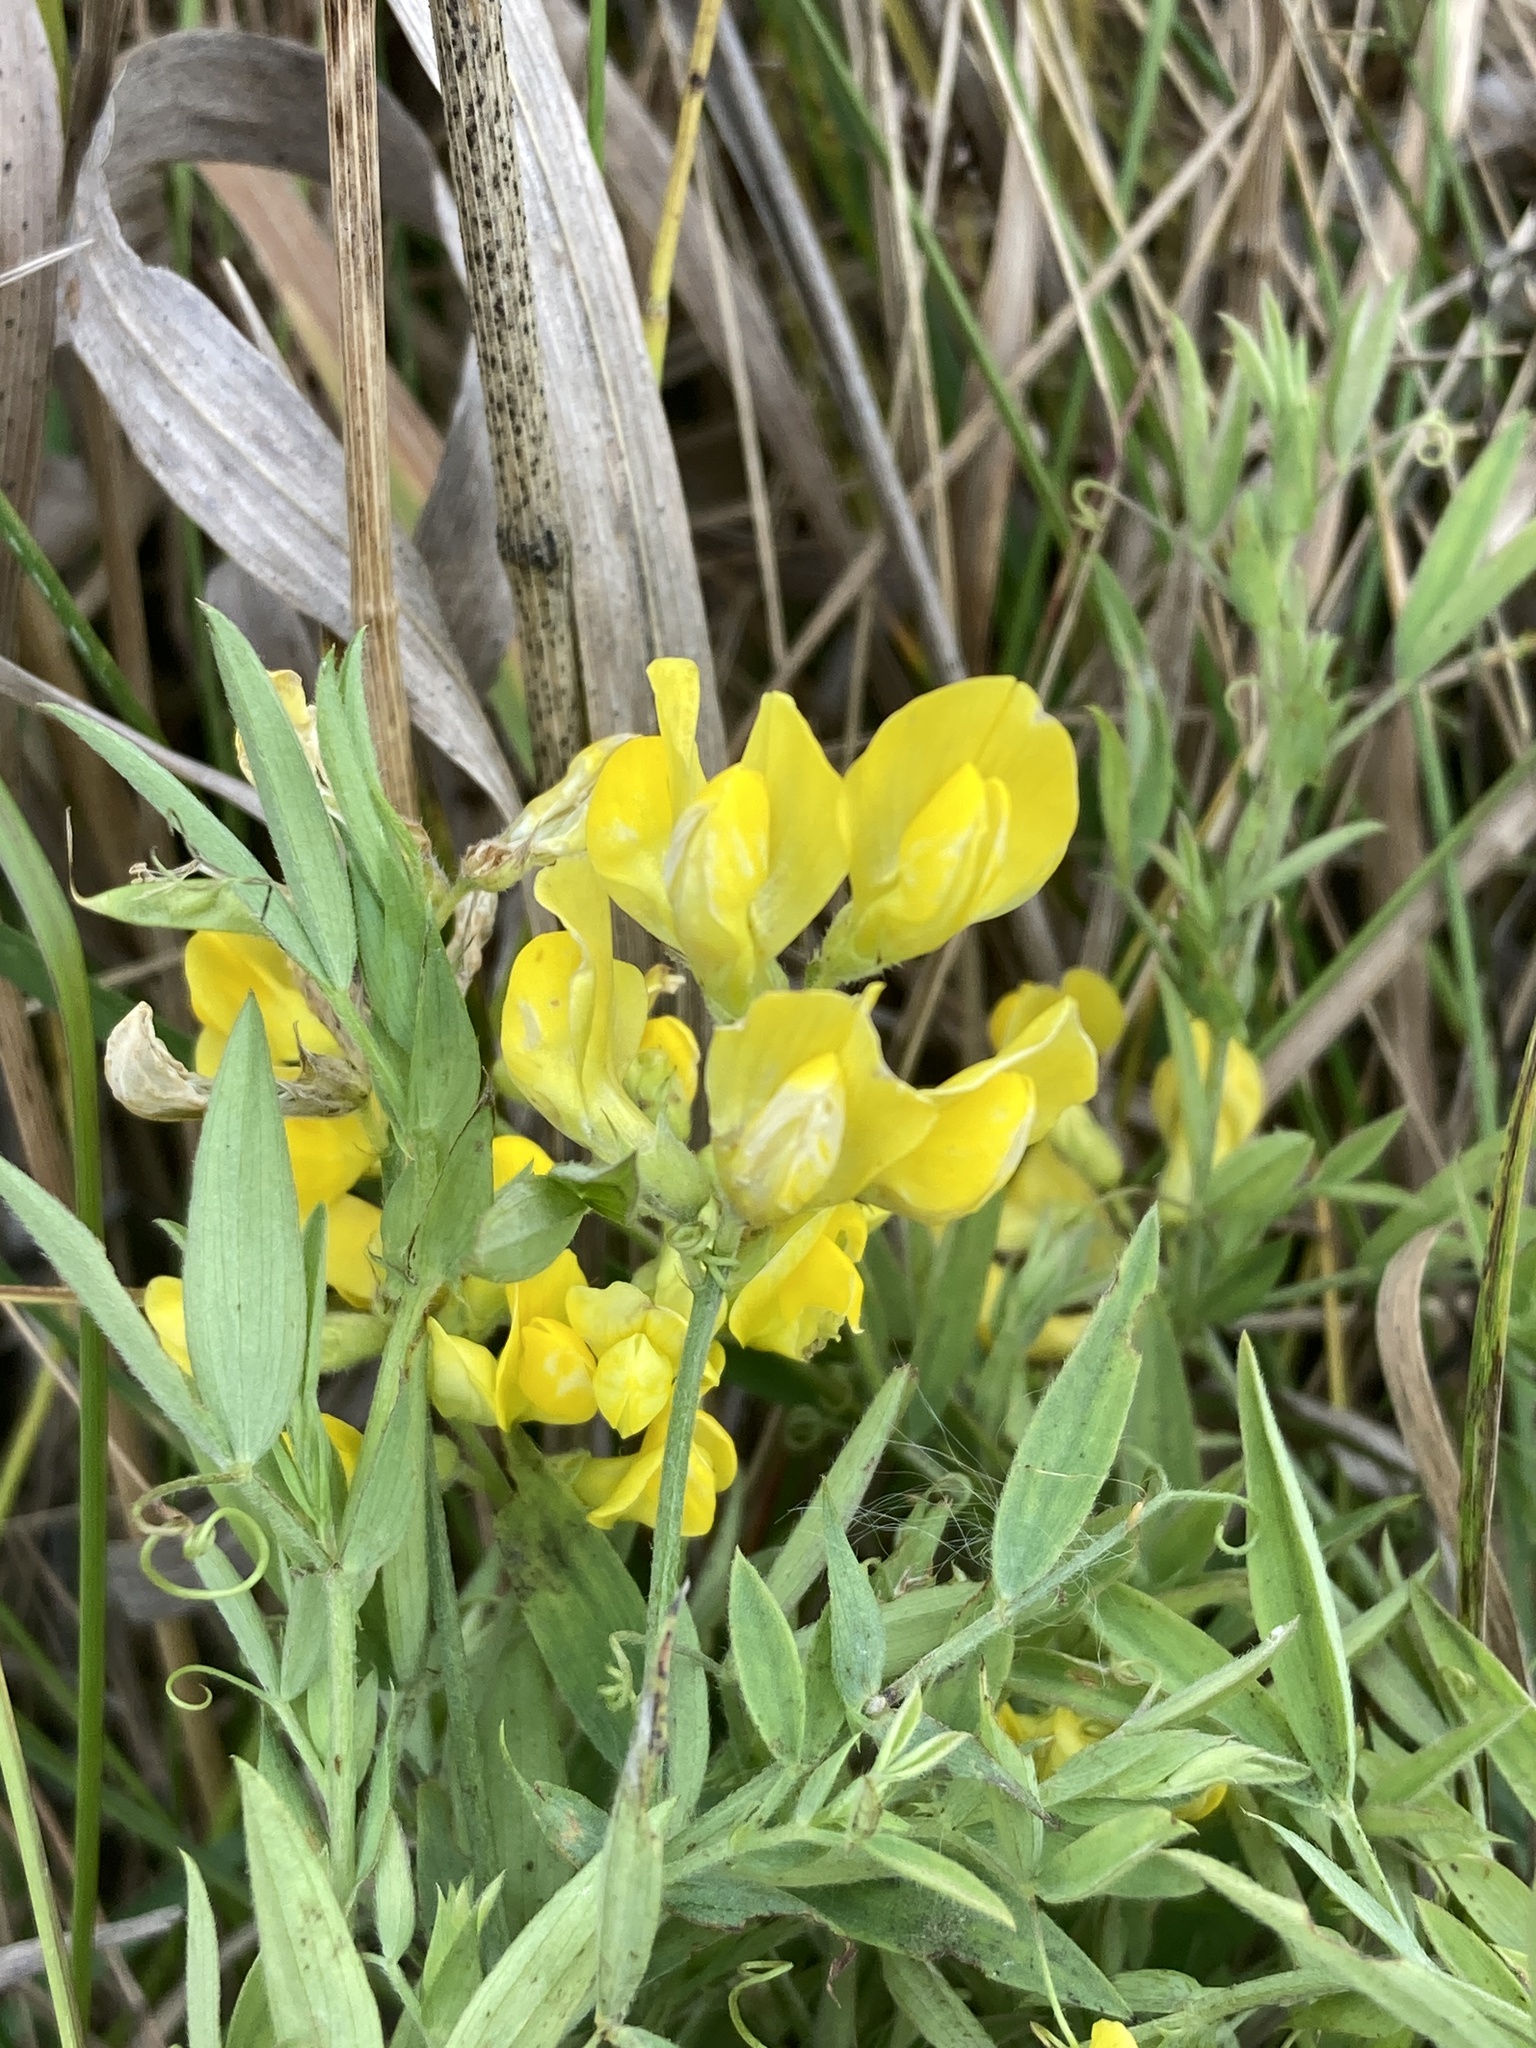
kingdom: Plantae
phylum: Tracheophyta
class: Magnoliopsida
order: Fabales
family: Fabaceae
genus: Lathyrus
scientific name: Lathyrus pratensis
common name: Meadow vetchling
